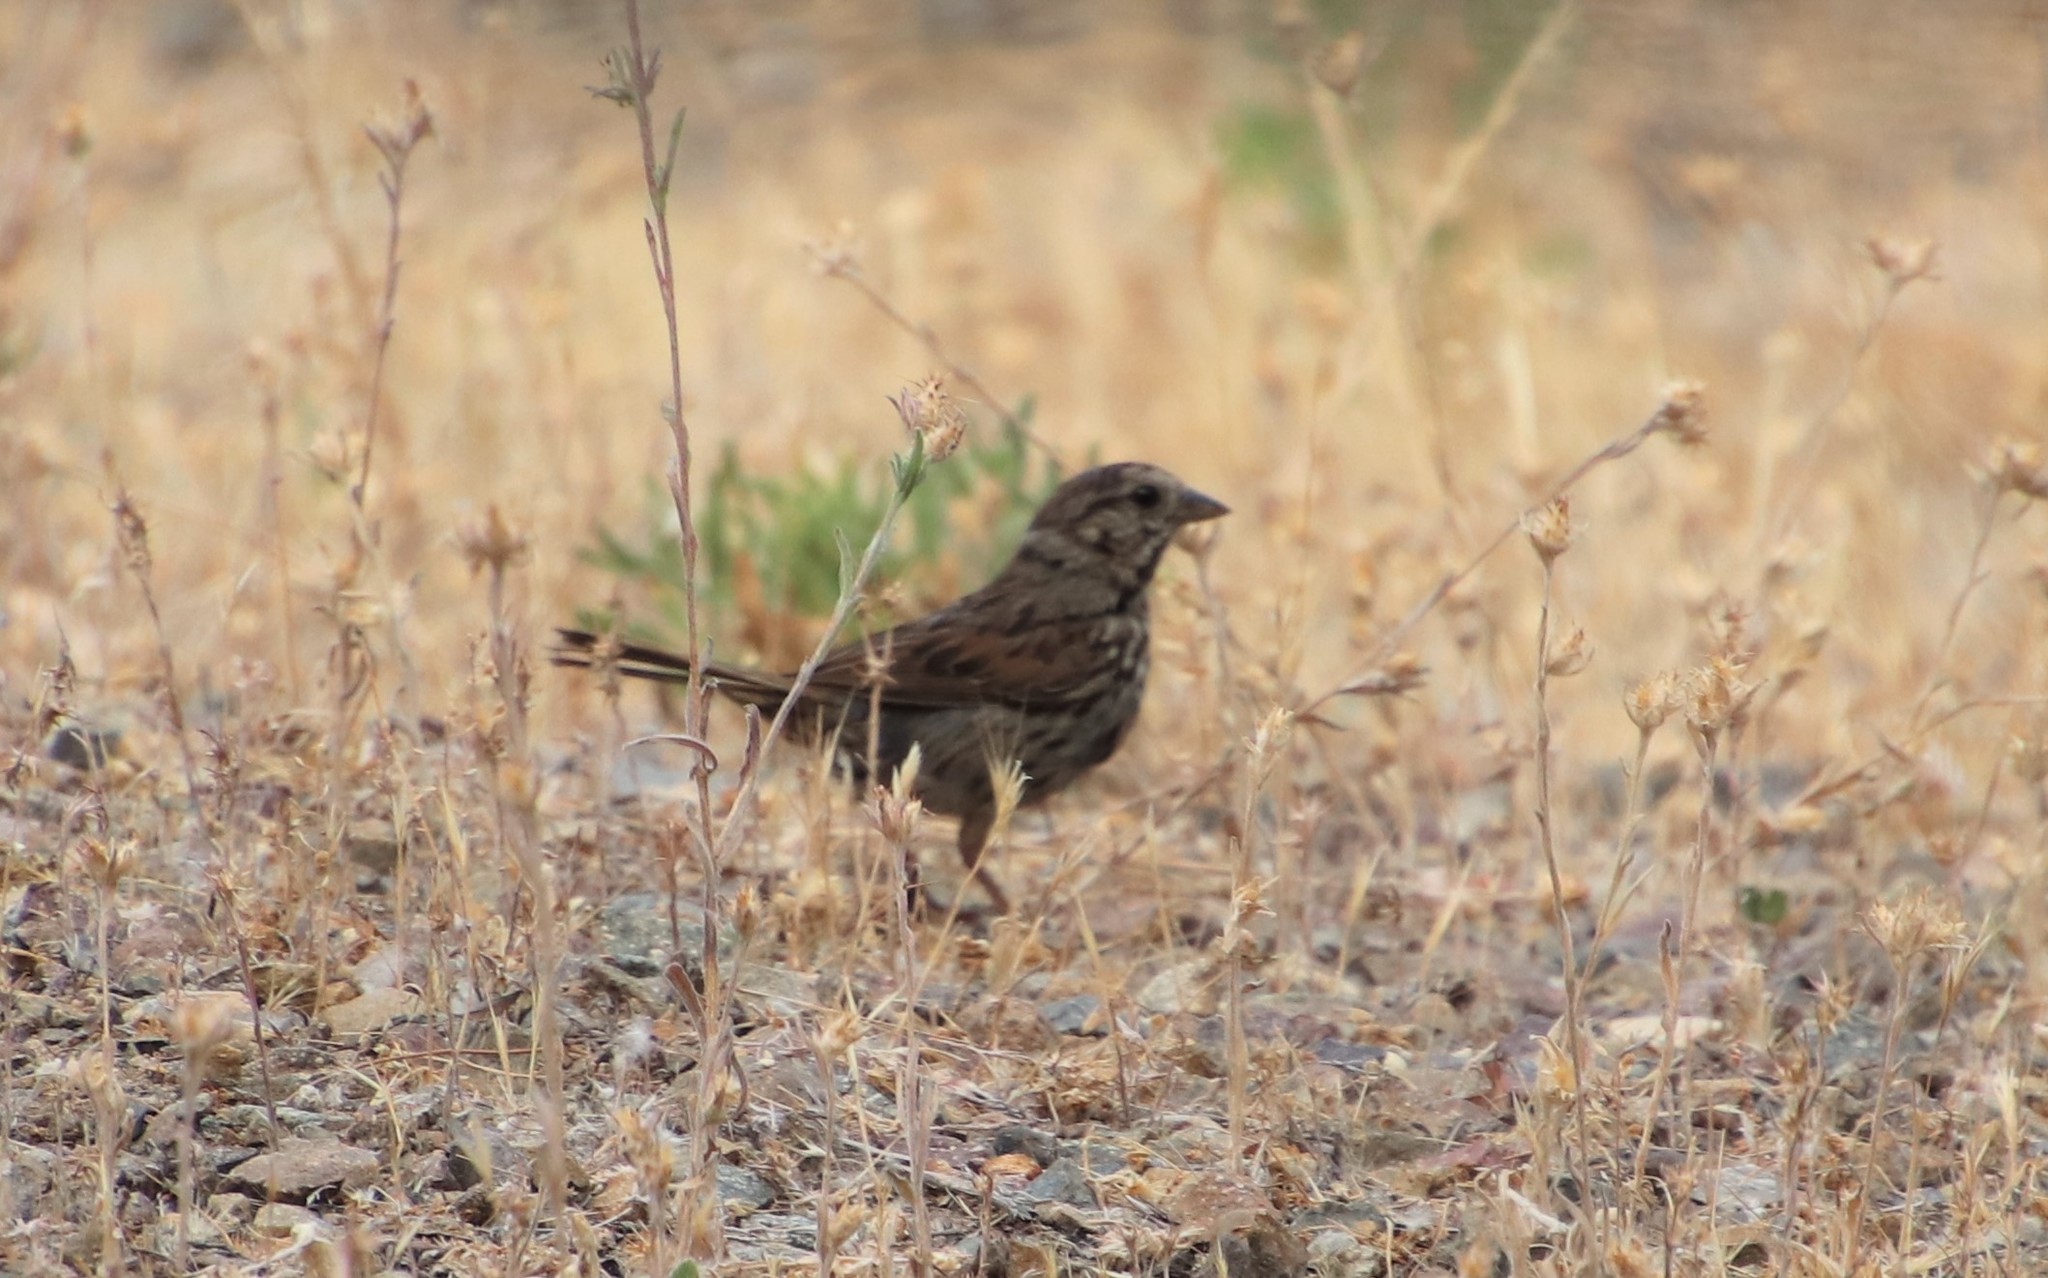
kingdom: Animalia
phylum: Chordata
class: Aves
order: Passeriformes
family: Passerellidae
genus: Melospiza
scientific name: Melospiza melodia
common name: Song sparrow
